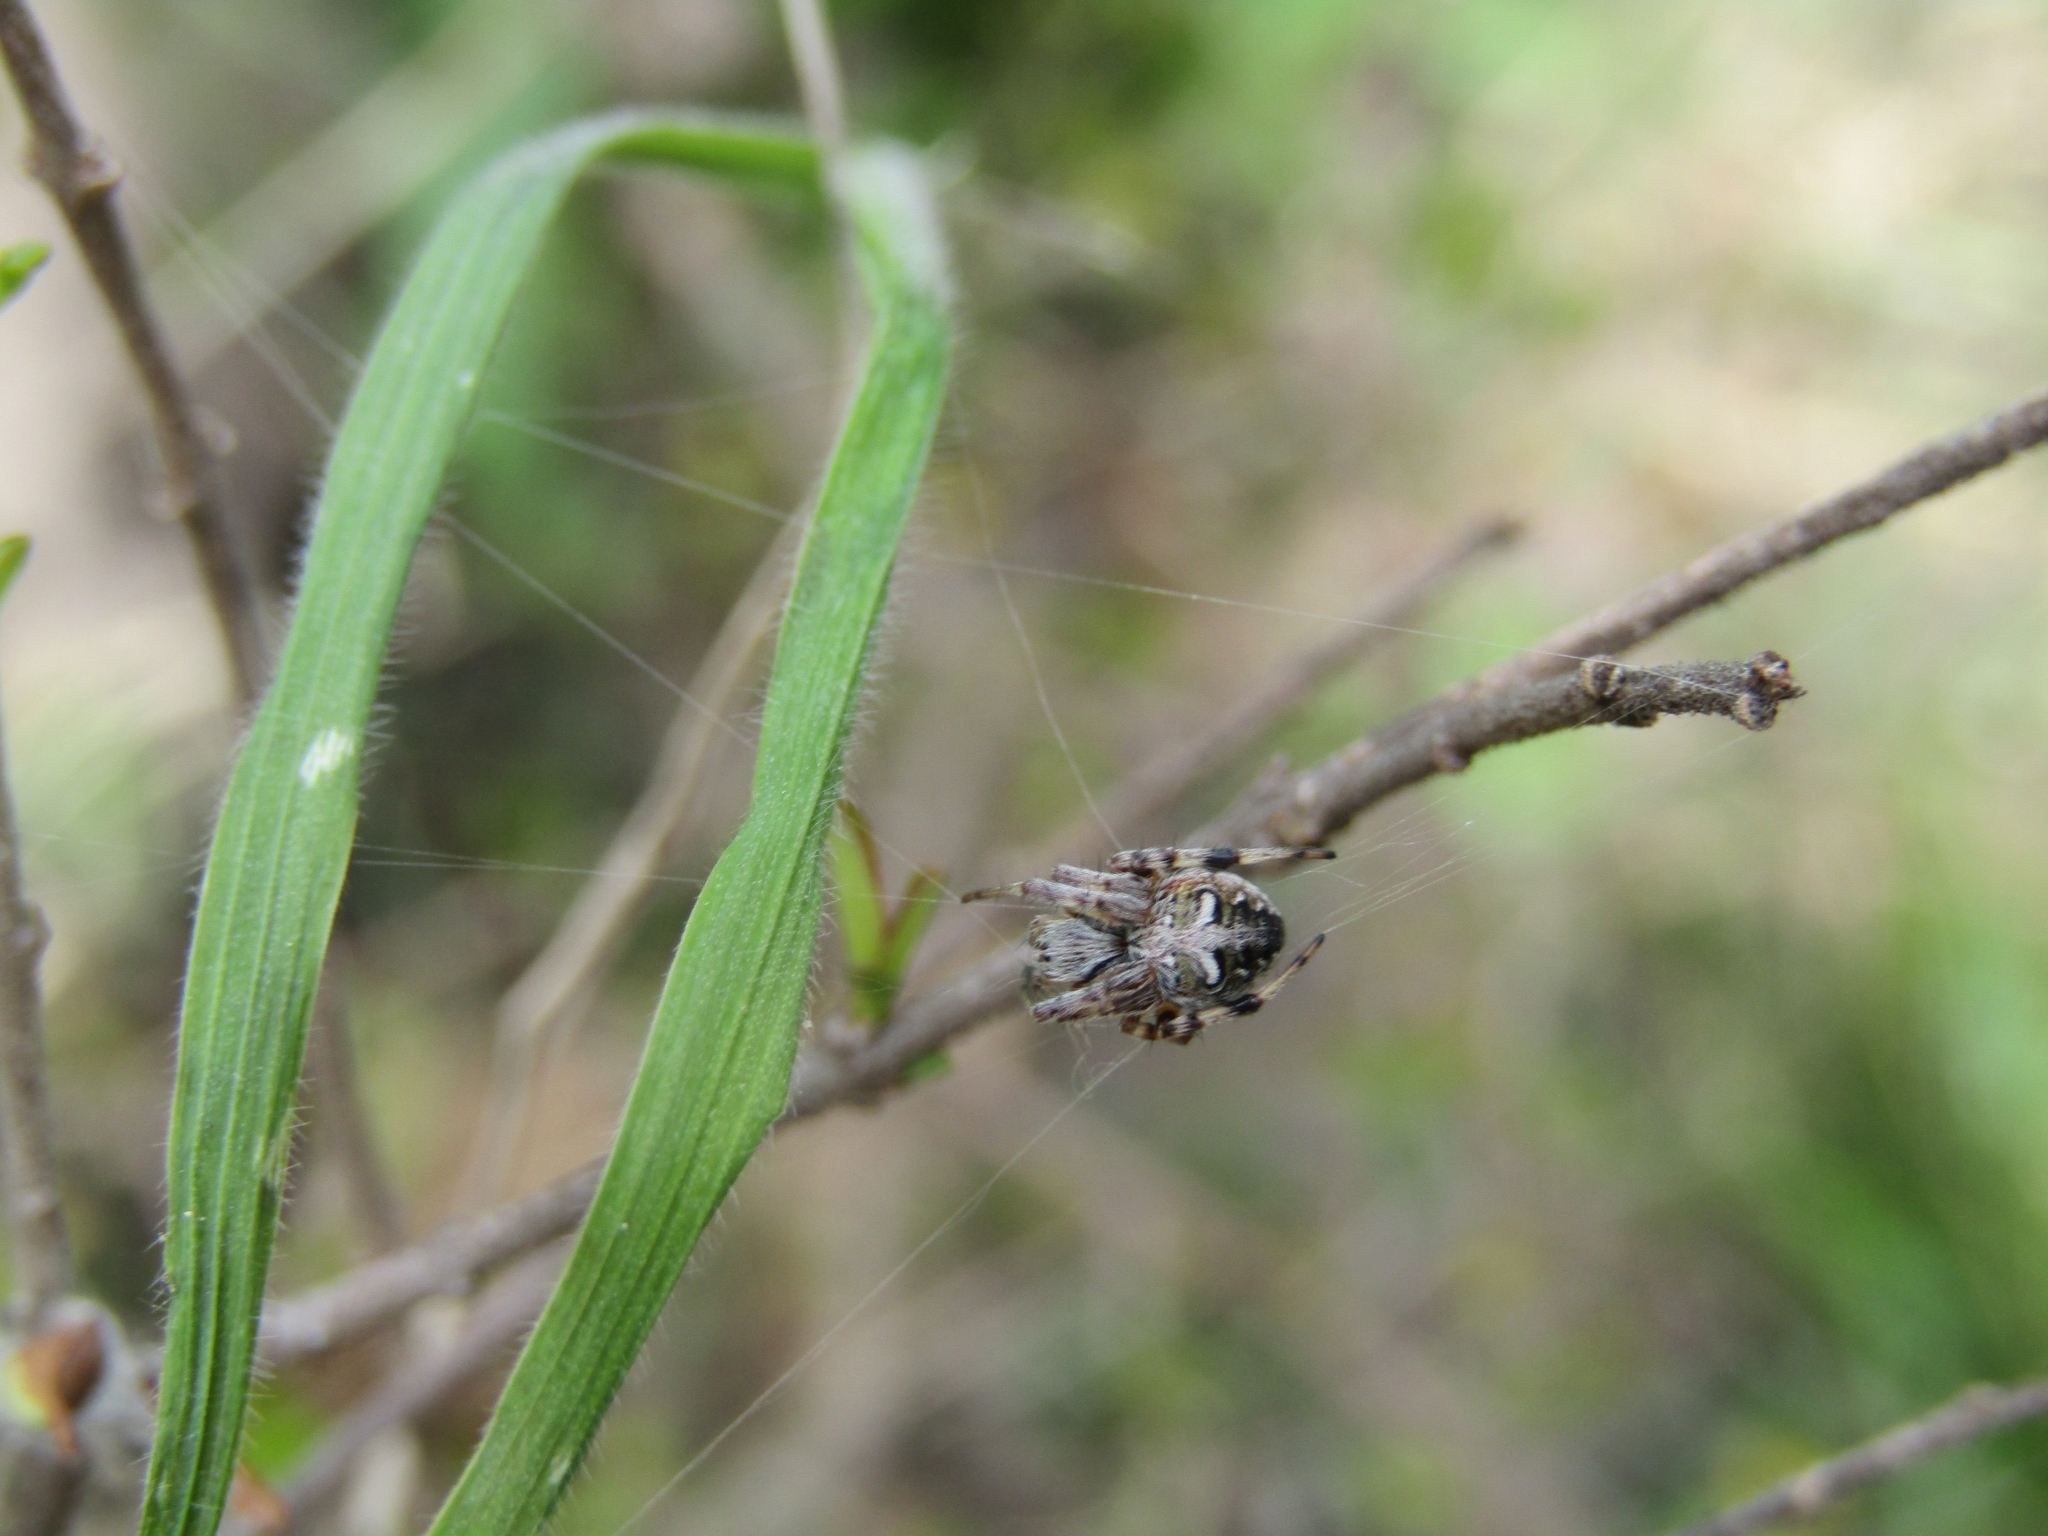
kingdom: Animalia
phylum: Arthropoda
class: Arachnida
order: Araneae
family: Araneidae
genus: Metepeira
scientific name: Metepeira
